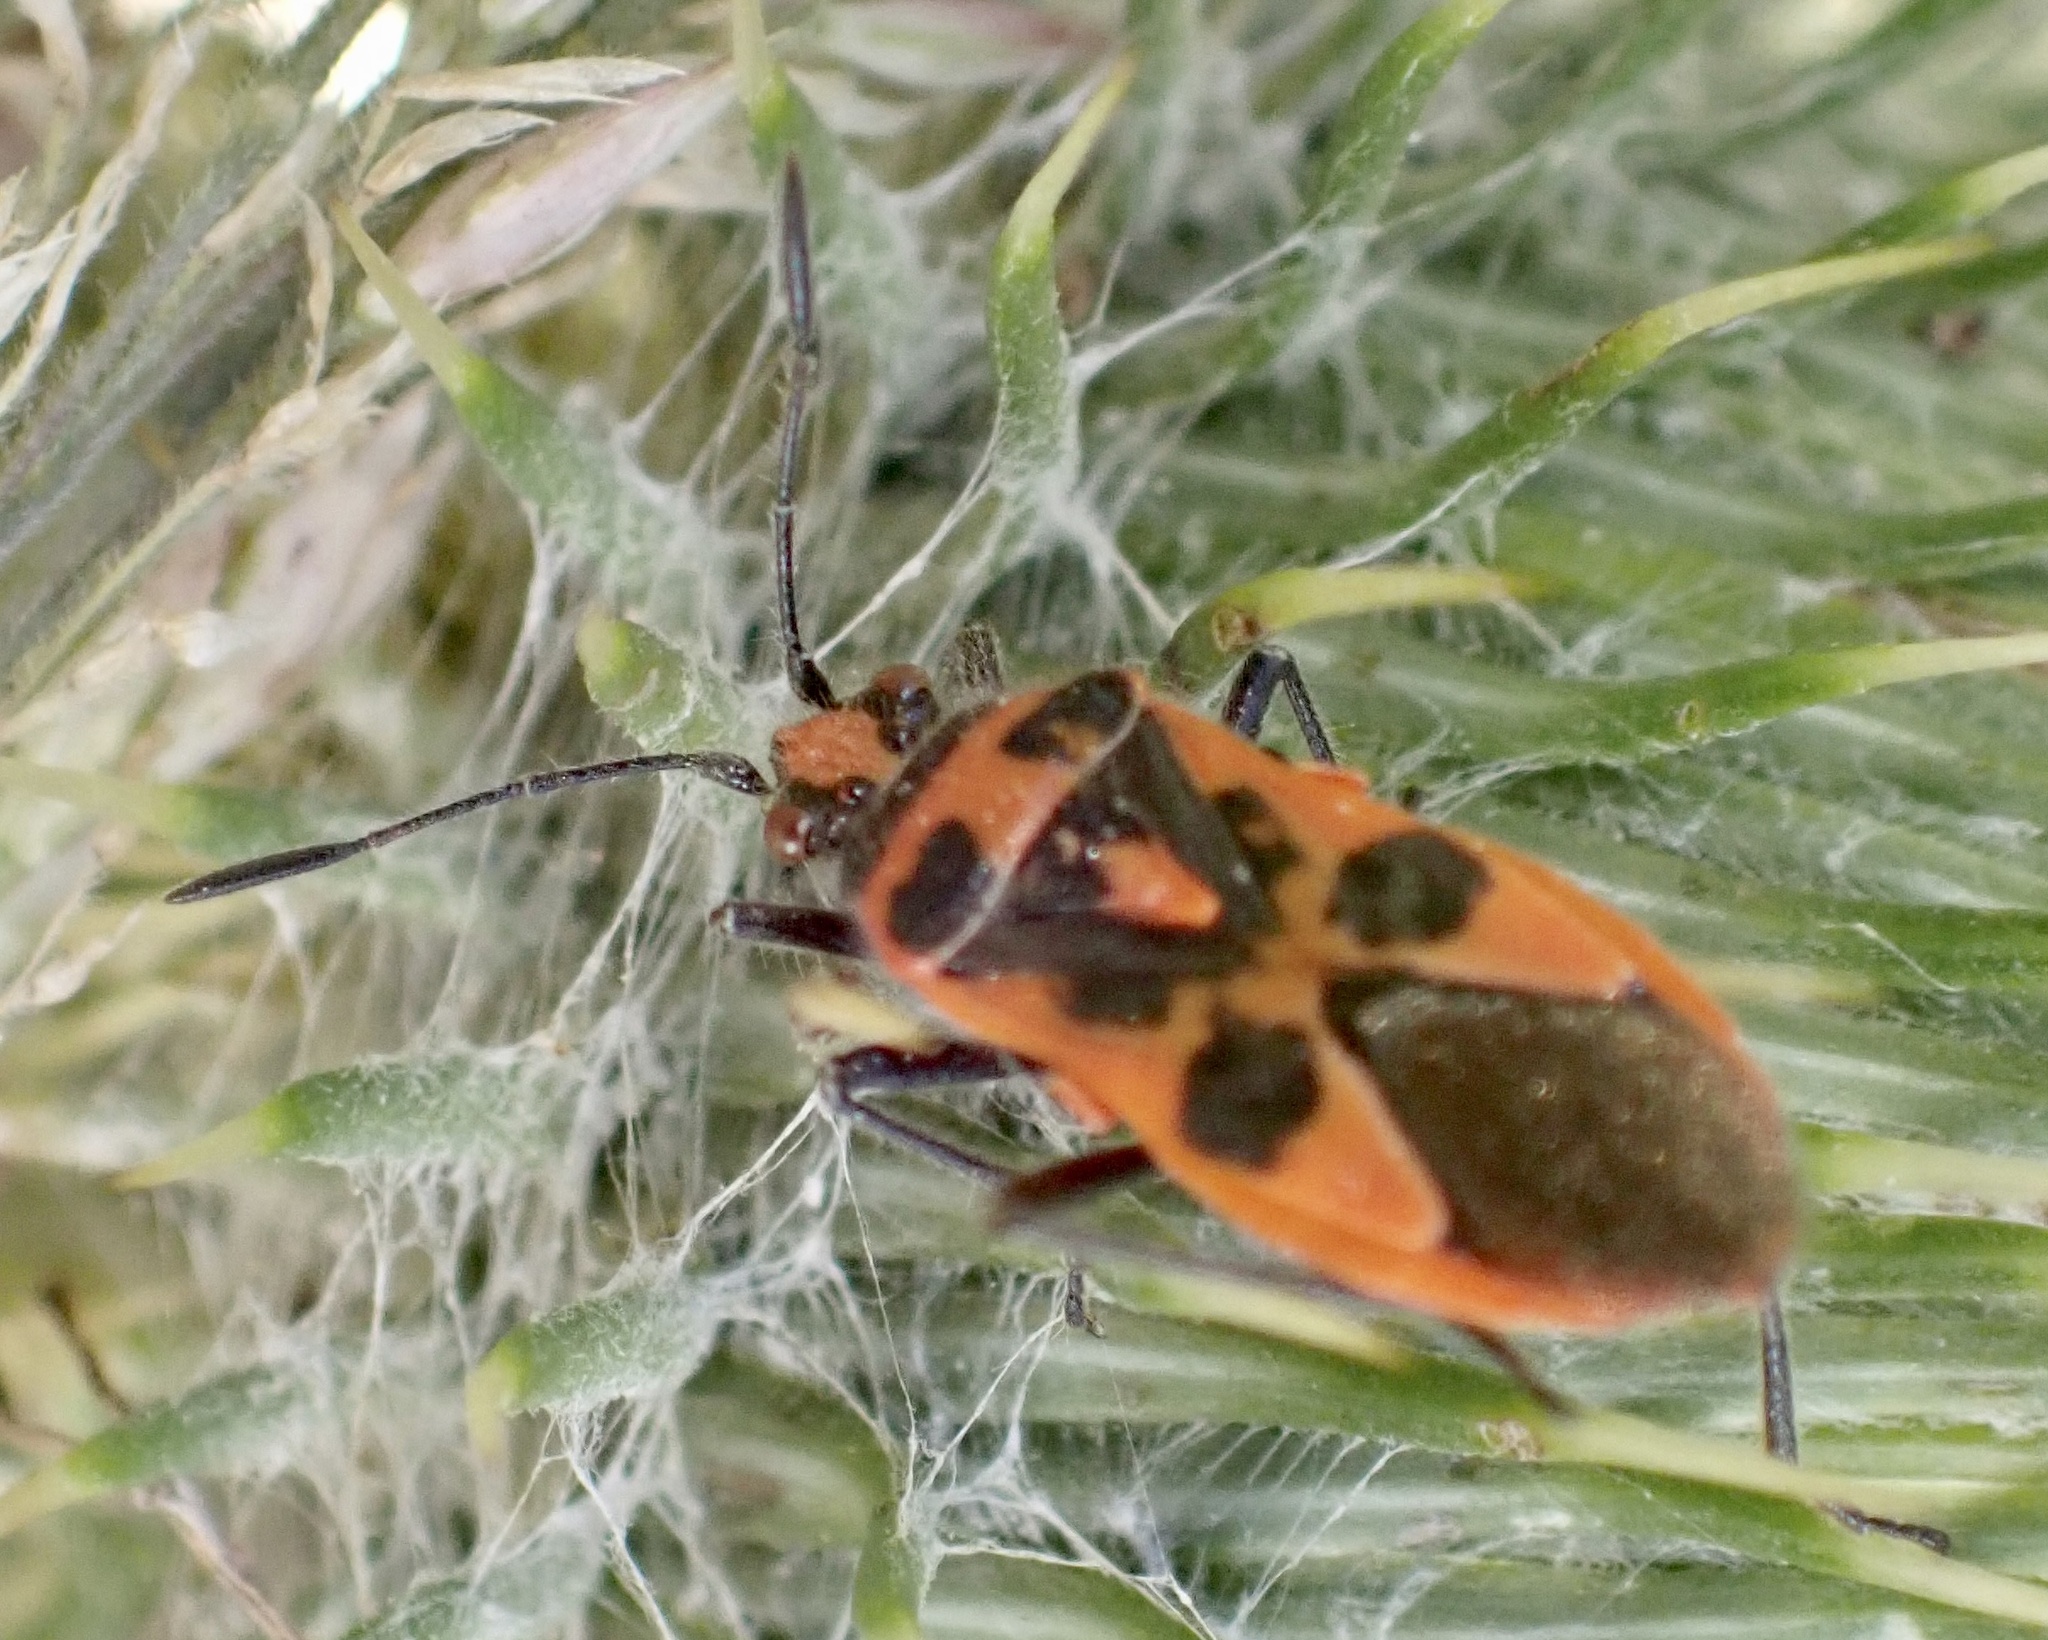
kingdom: Animalia
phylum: Arthropoda
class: Insecta
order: Hemiptera
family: Rhopalidae
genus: Corizus
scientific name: Corizus hyoscyami
